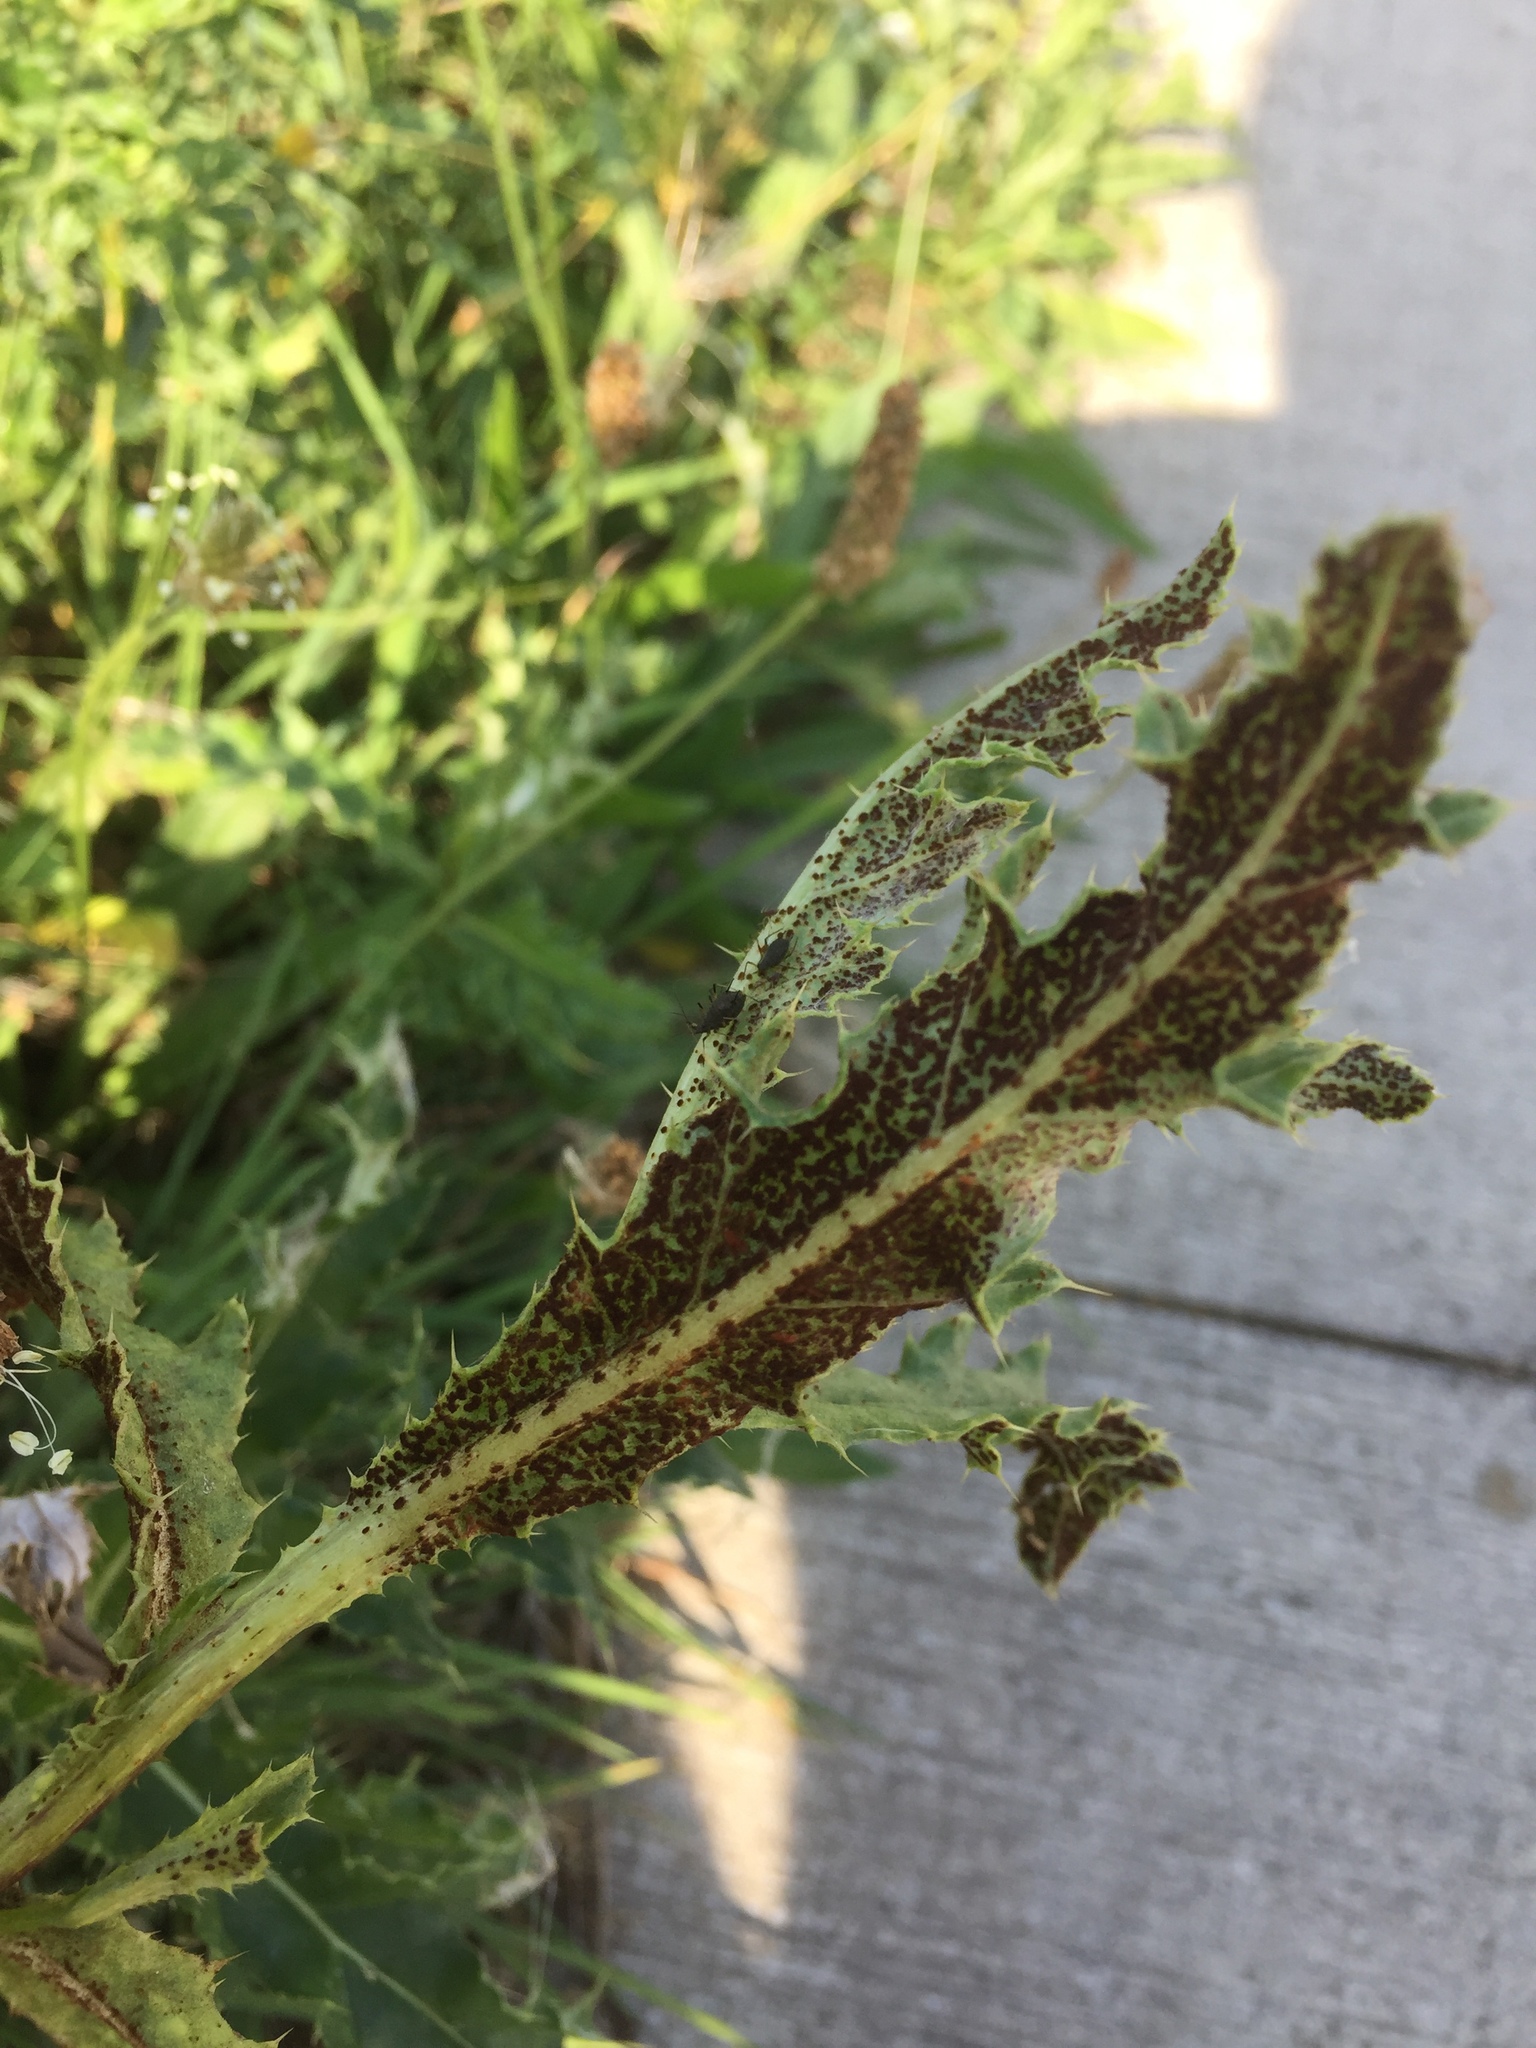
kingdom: Fungi
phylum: Basidiomycota
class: Pucciniomycetes
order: Pucciniales
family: Pucciniaceae
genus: Puccinia
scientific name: Puccinia suaveolens
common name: Thistle rust
